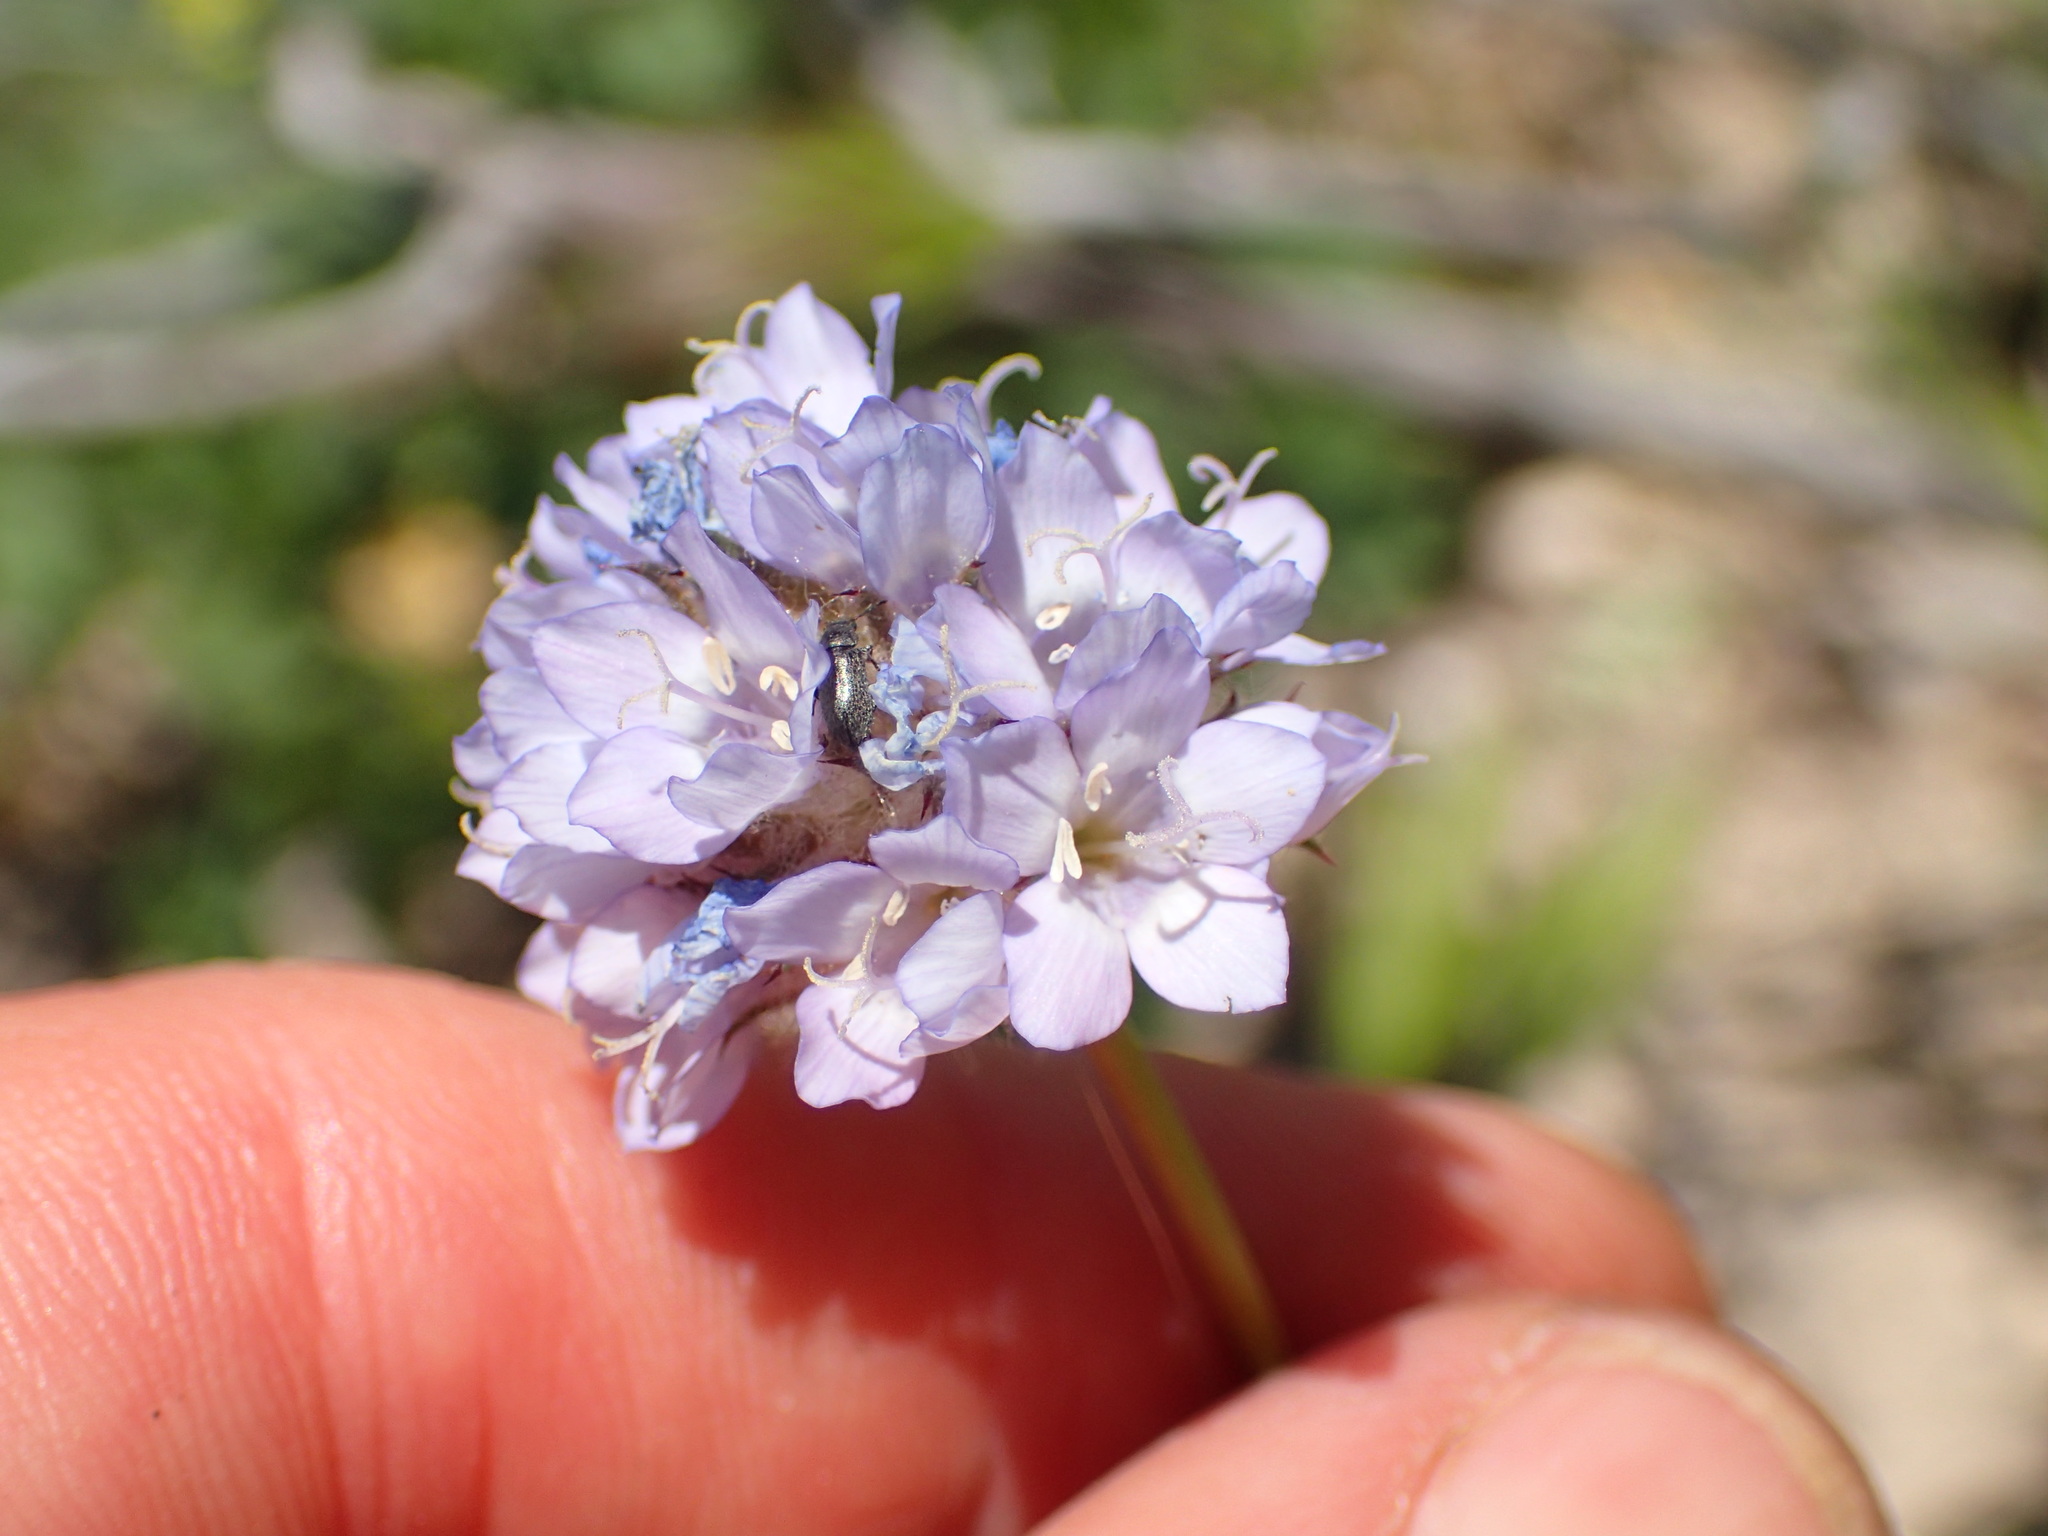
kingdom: Plantae
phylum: Tracheophyta
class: Magnoliopsida
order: Ericales
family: Polemoniaceae
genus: Gilia
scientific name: Gilia capitata
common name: Bluehead gilia
